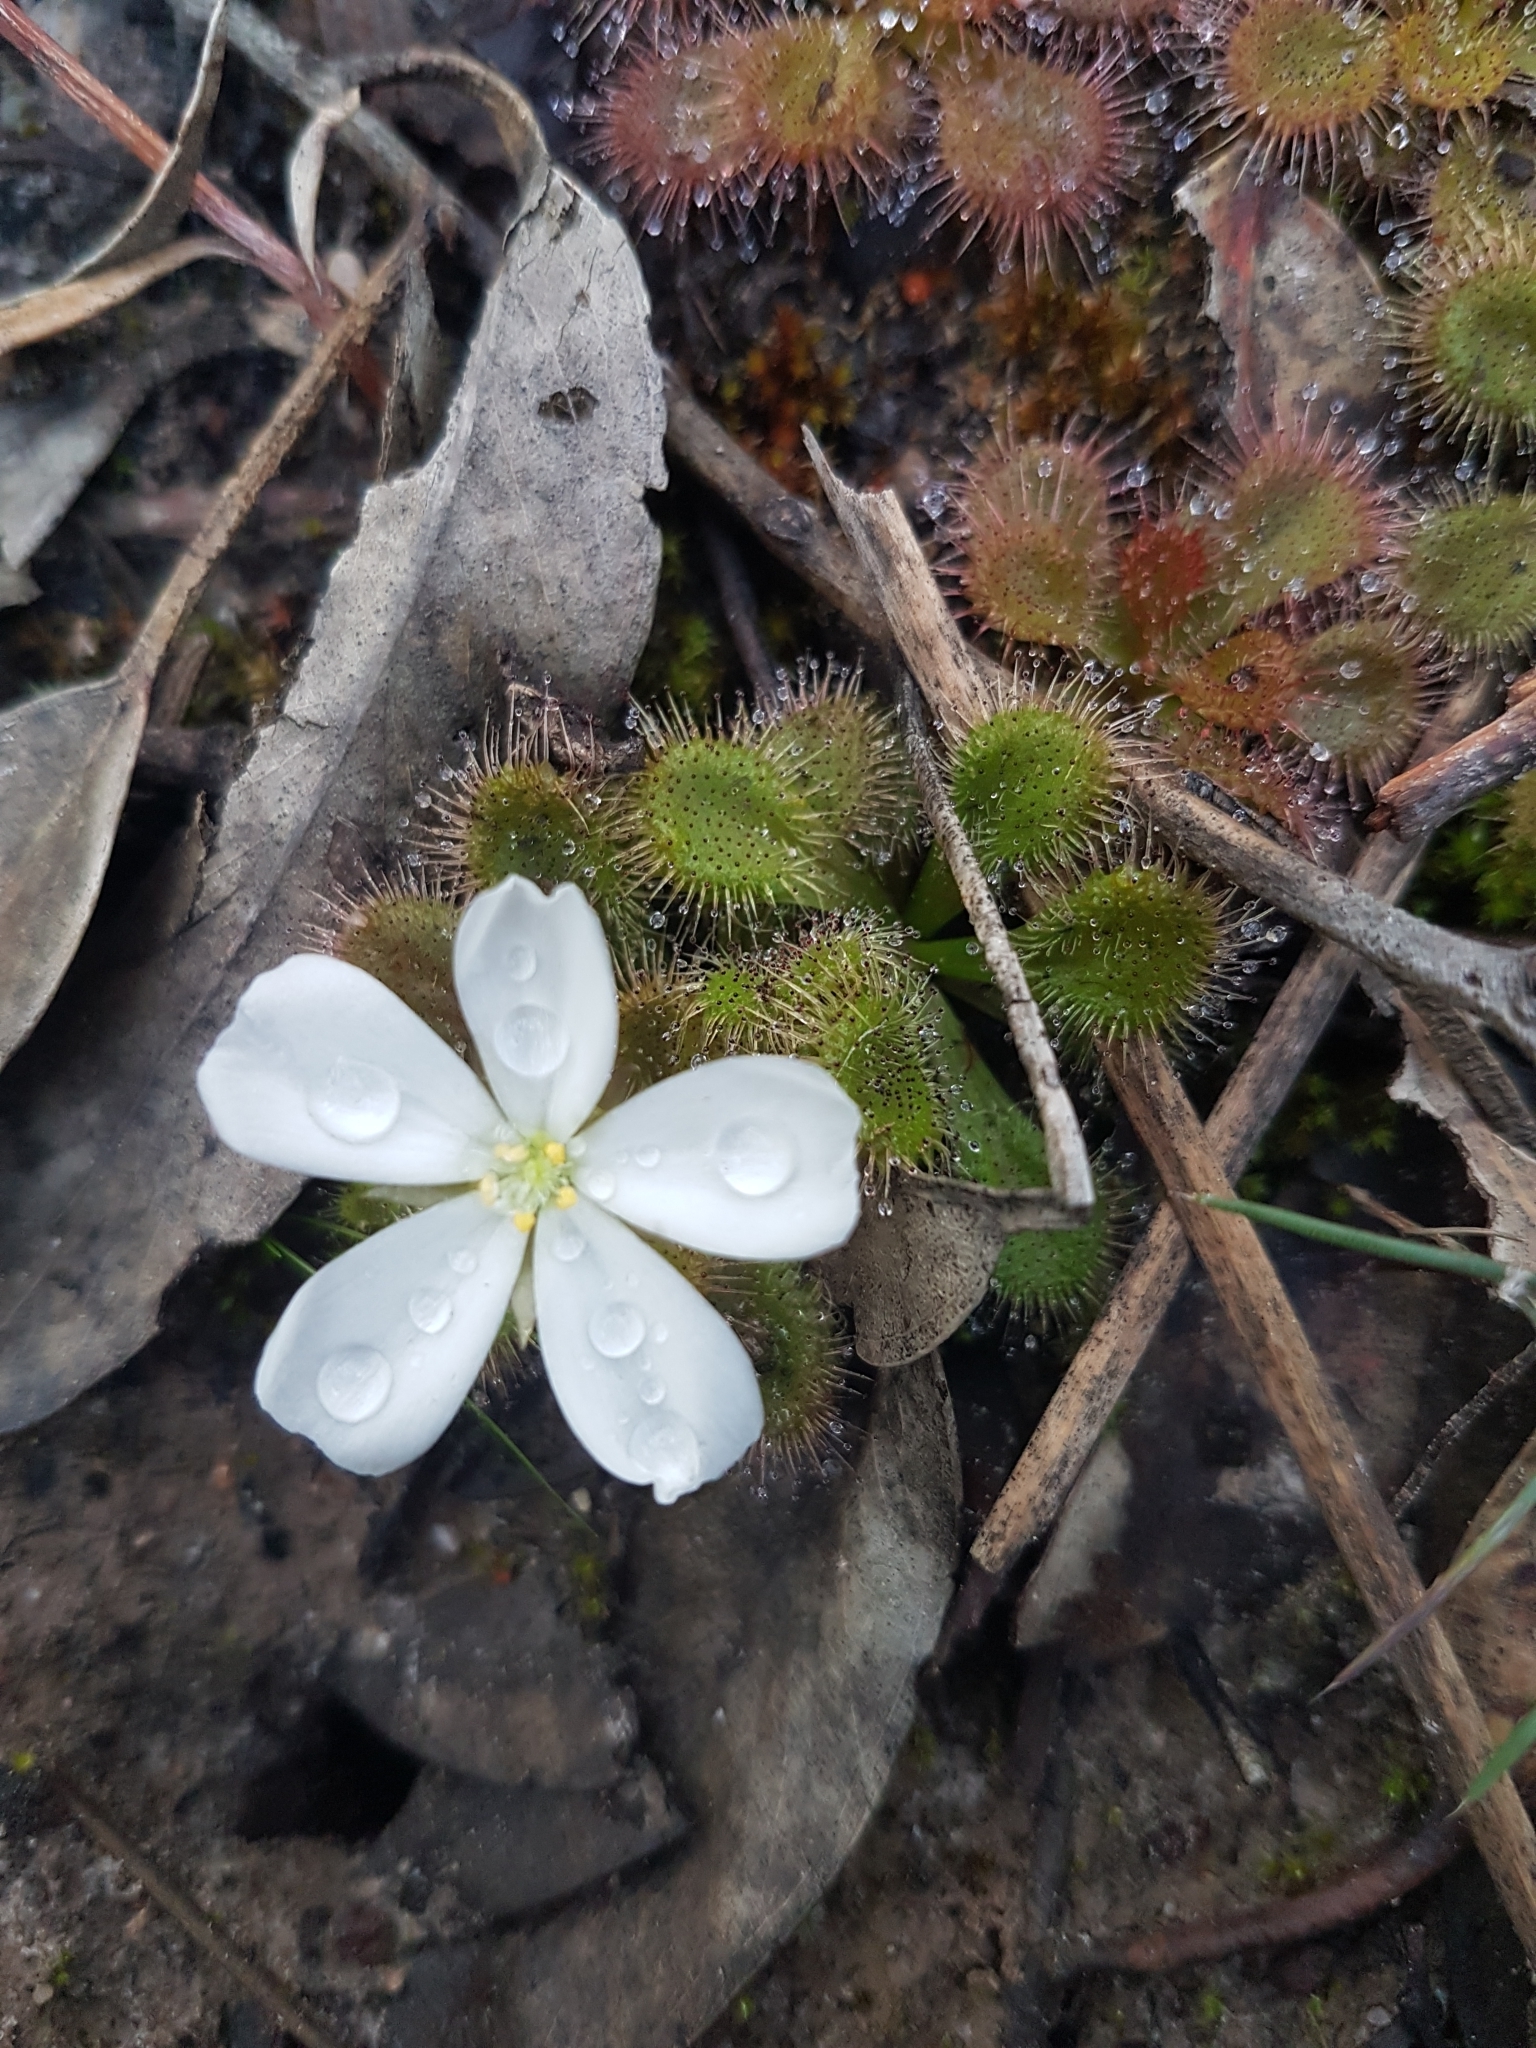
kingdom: Plantae
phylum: Tracheophyta
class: Magnoliopsida
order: Caryophyllales
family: Droseraceae
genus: Drosera
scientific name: Drosera aberrans
